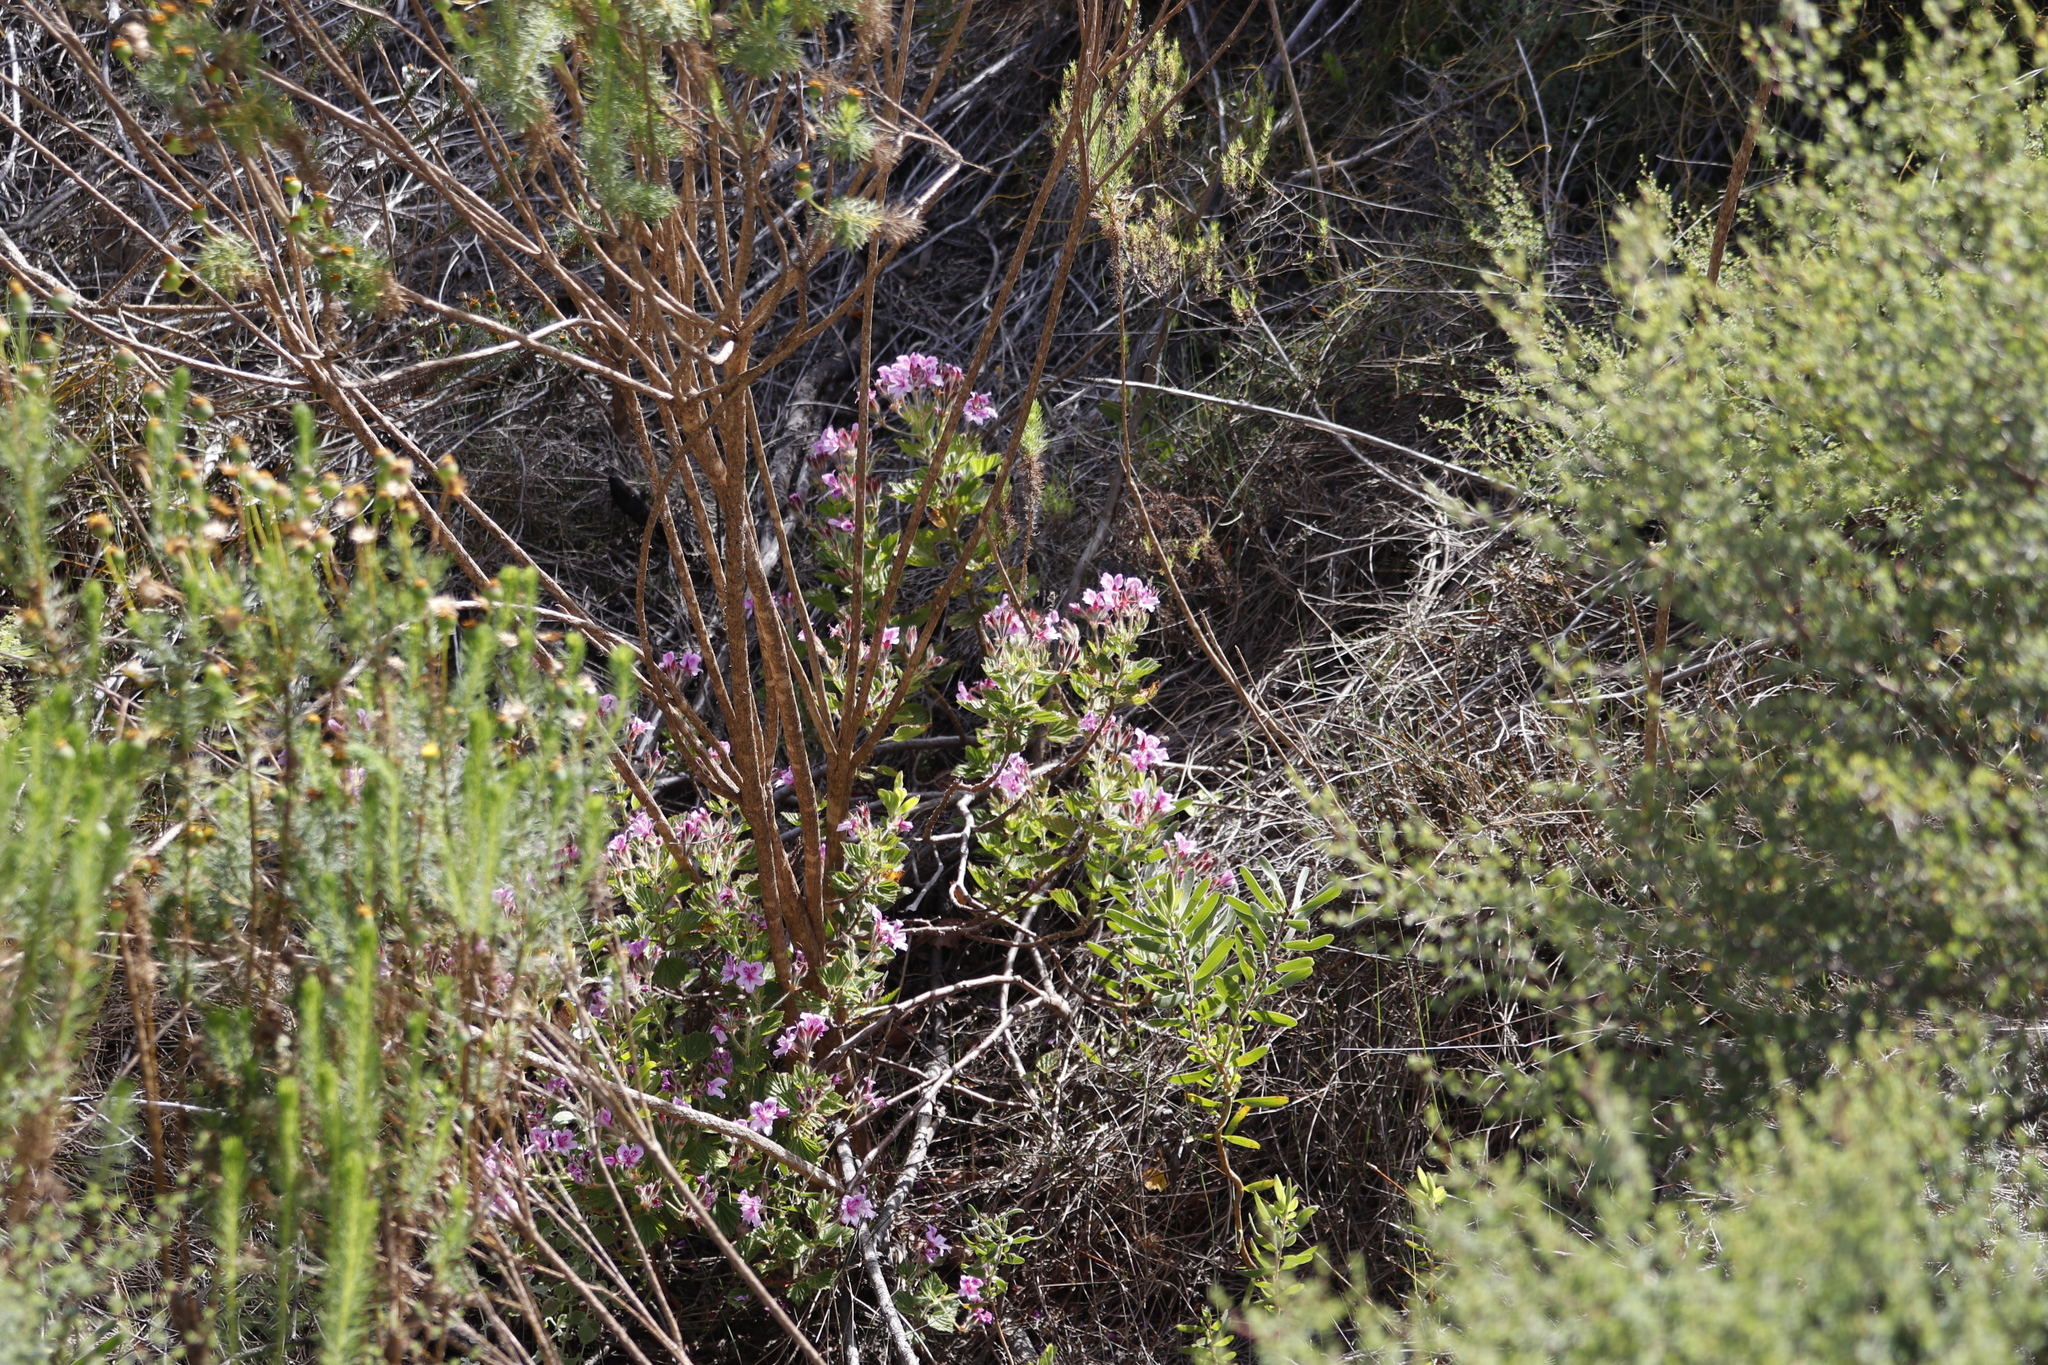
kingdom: Plantae
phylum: Tracheophyta
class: Magnoliopsida
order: Geraniales
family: Geraniaceae
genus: Pelargonium
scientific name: Pelargonium cucullatum
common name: Tree pelargonium
